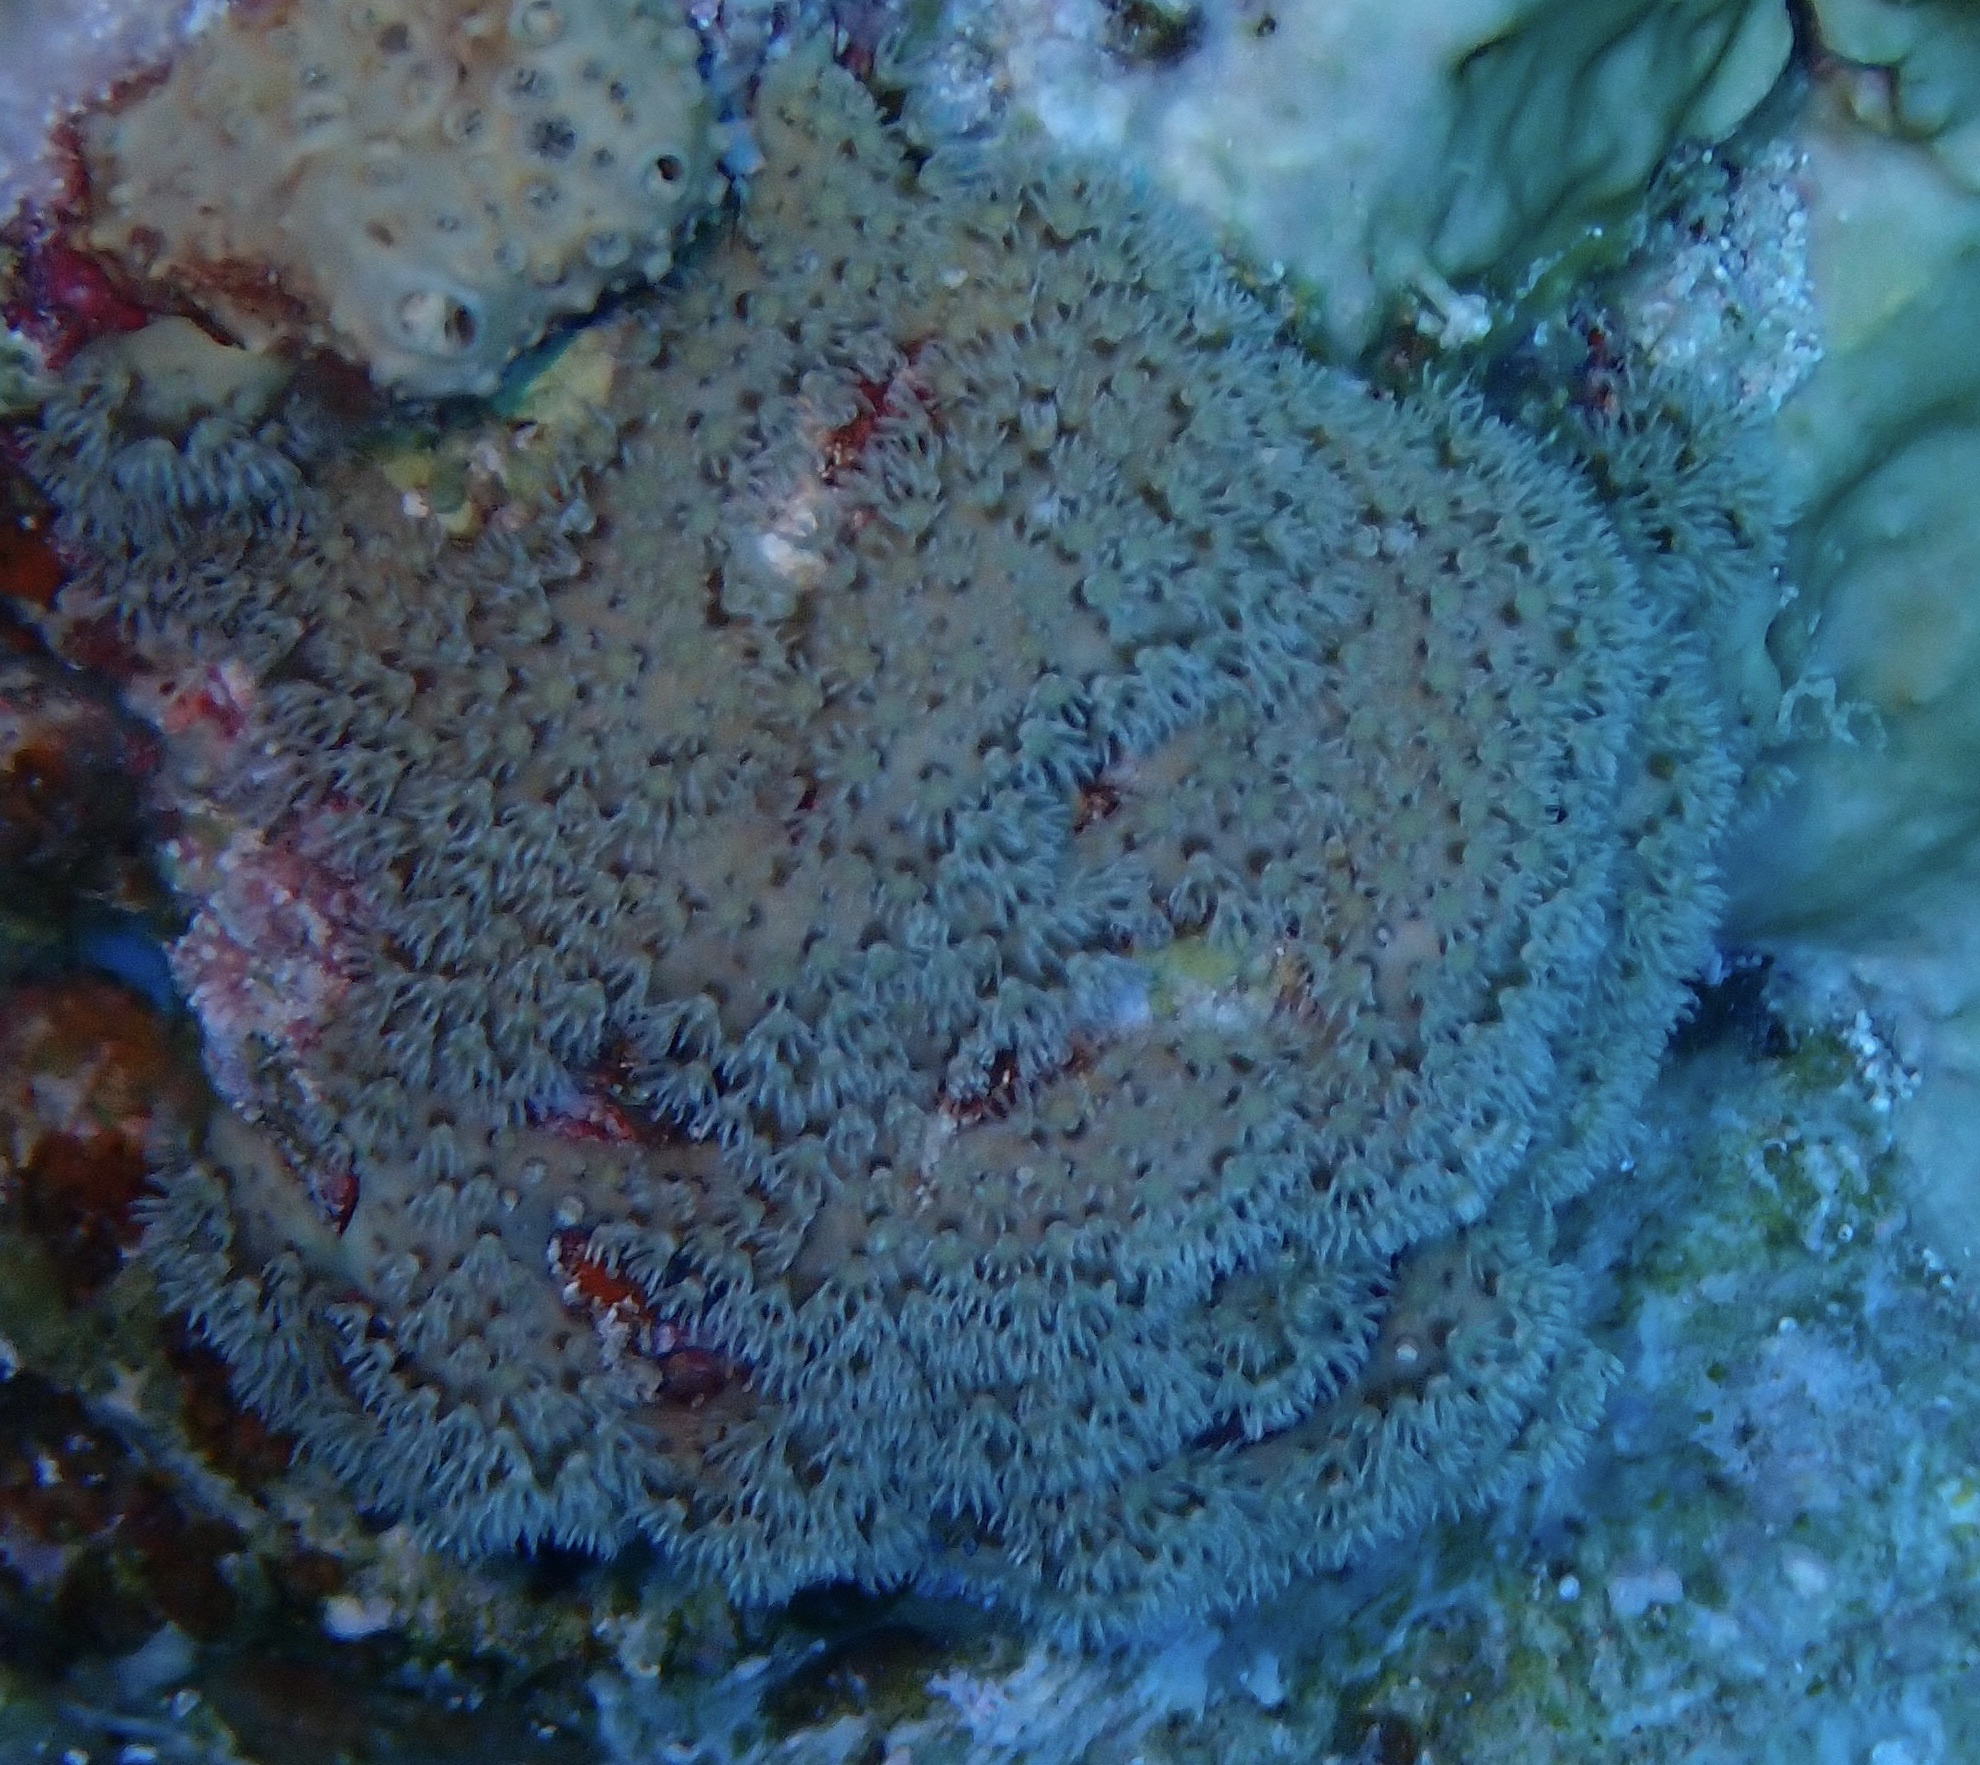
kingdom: Animalia
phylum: Cnidaria
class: Anthozoa
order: Malacalcyonacea
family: Lemnaliadae
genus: Rhytisma
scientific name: Rhytisma fulvum
